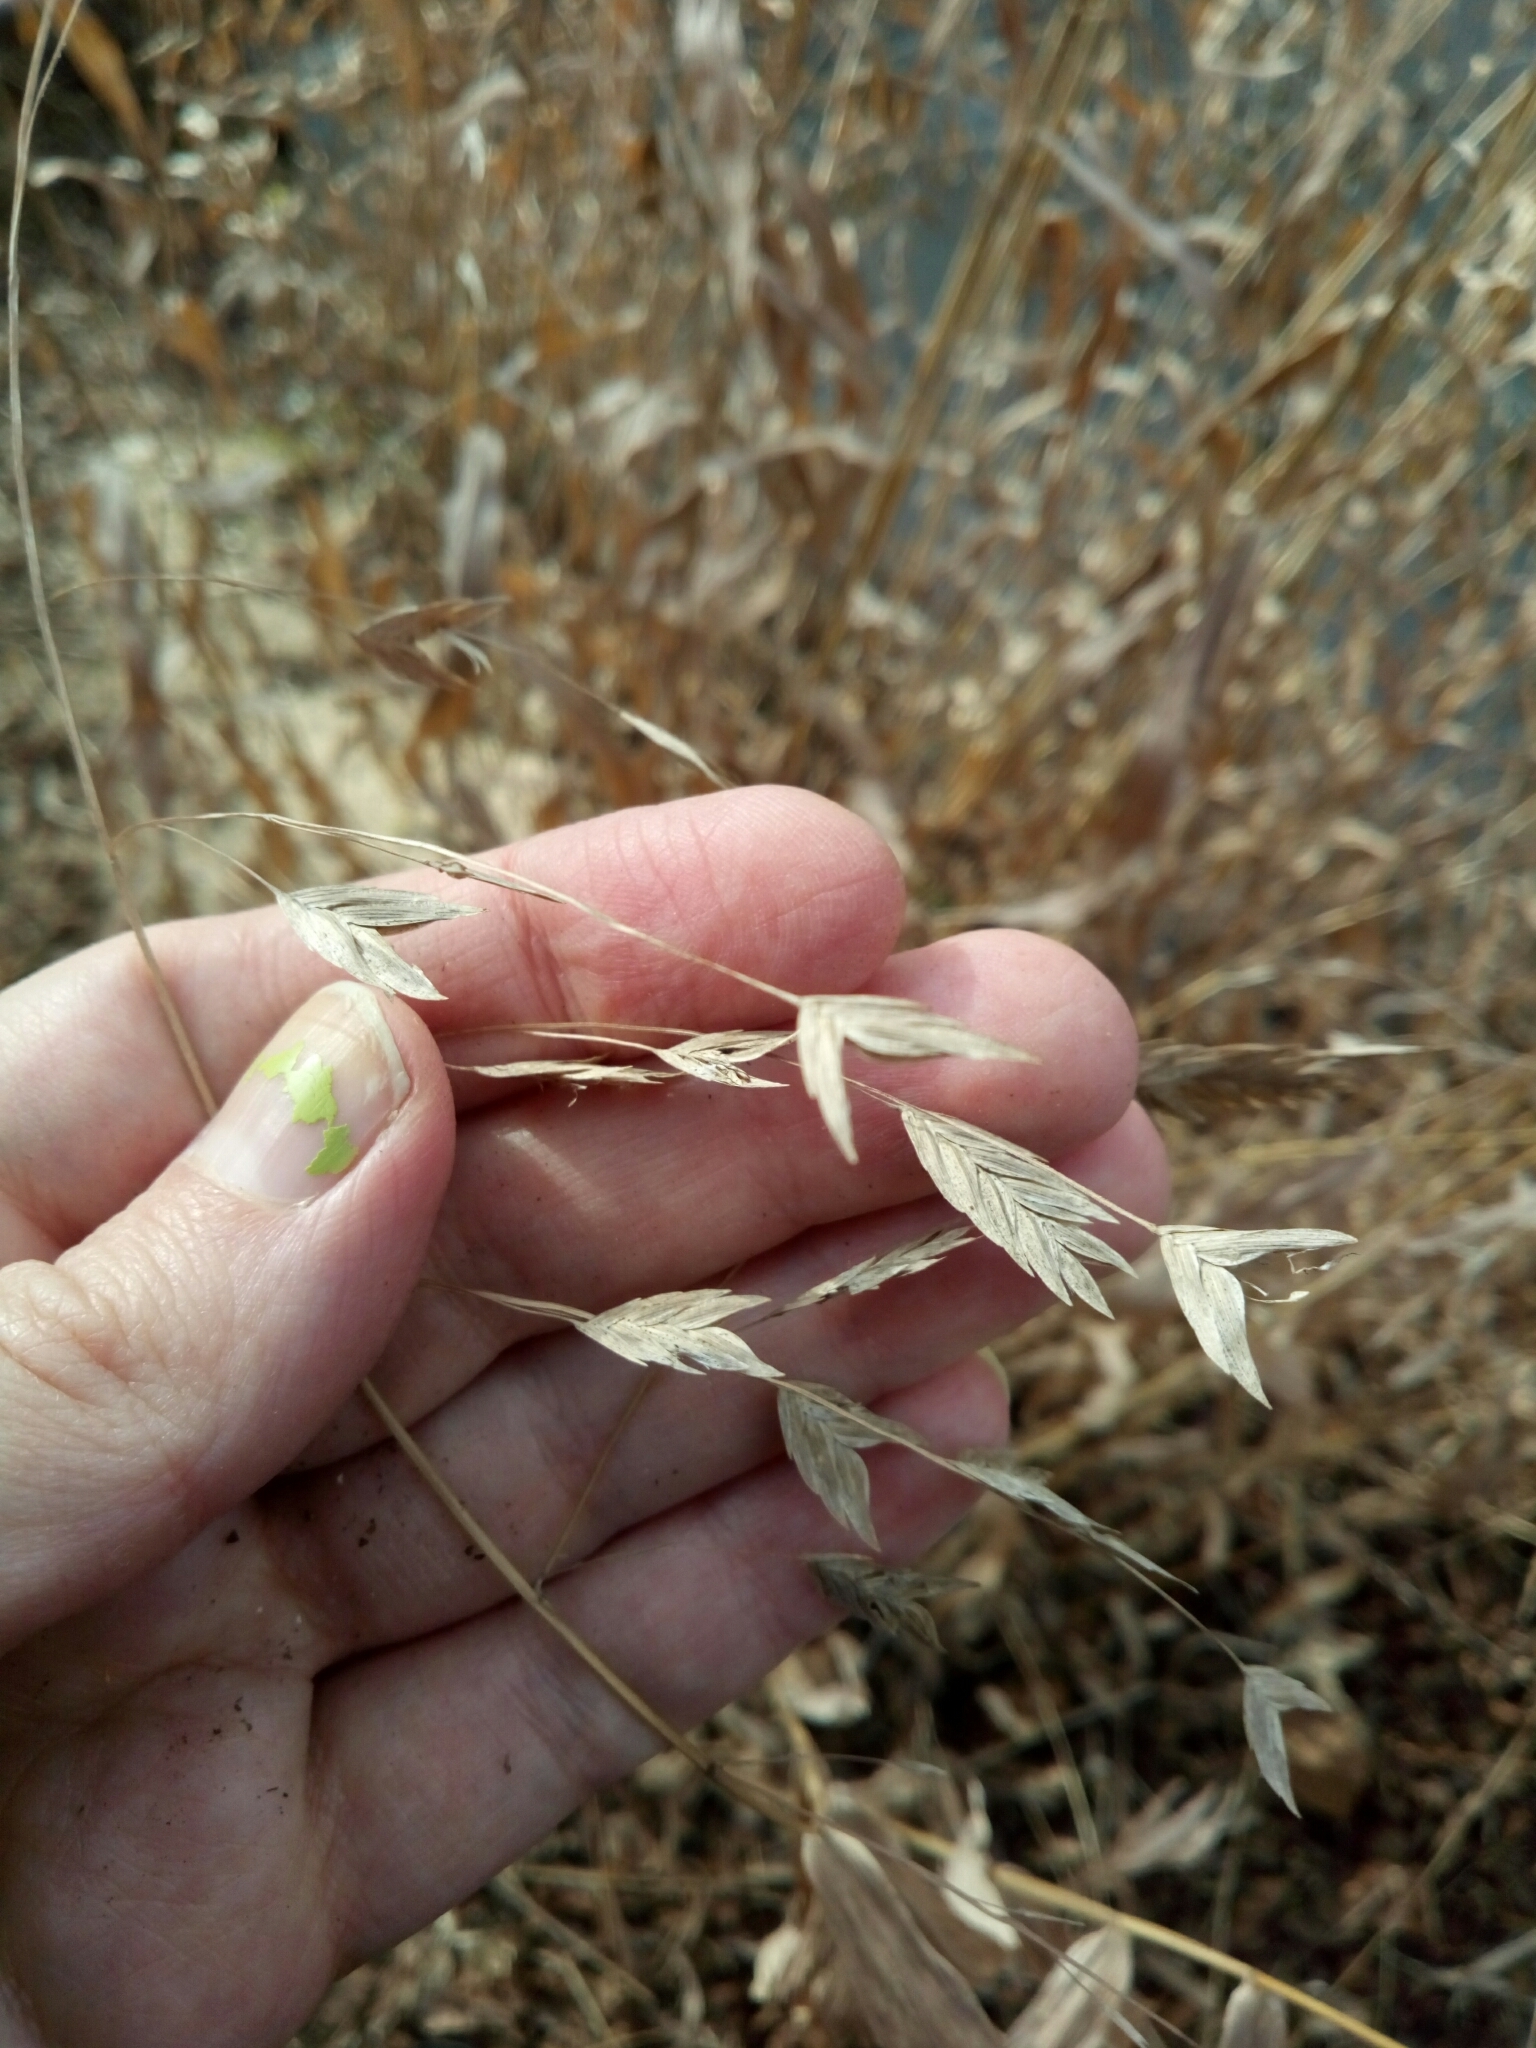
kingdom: Plantae
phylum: Tracheophyta
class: Liliopsida
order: Poales
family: Poaceae
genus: Chasmanthium
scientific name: Chasmanthium latifolium
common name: Broad-leaved chasmanthium
